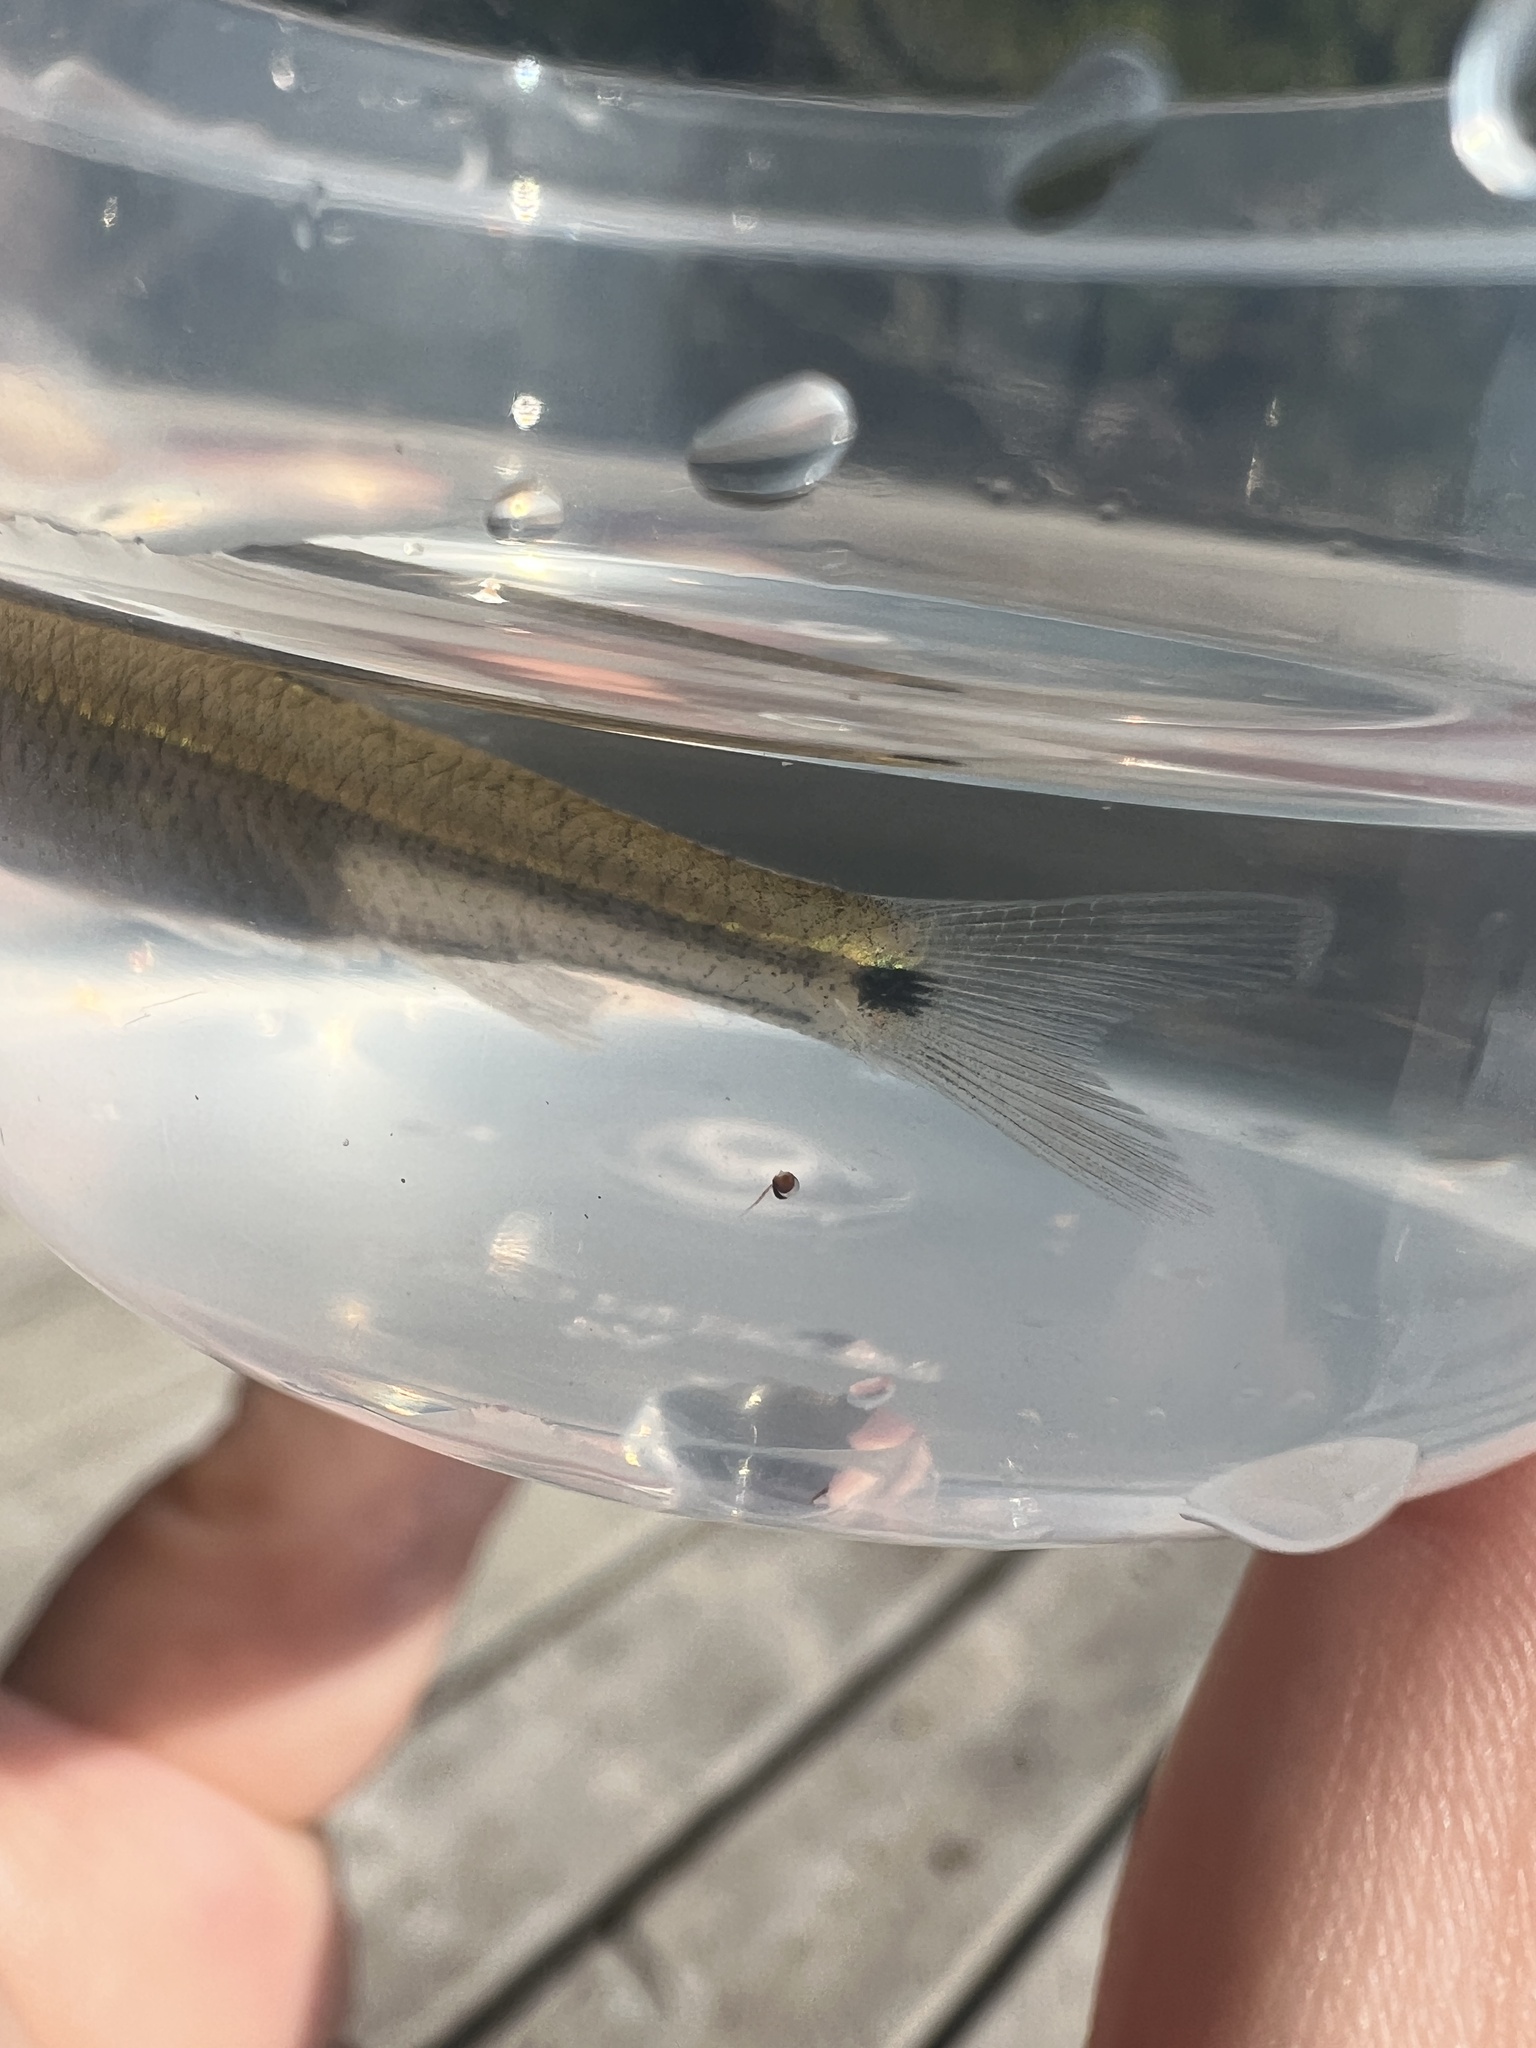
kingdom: Animalia
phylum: Chordata
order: Cypriniformes
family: Cyprinidae
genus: Notropis
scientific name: Notropis
